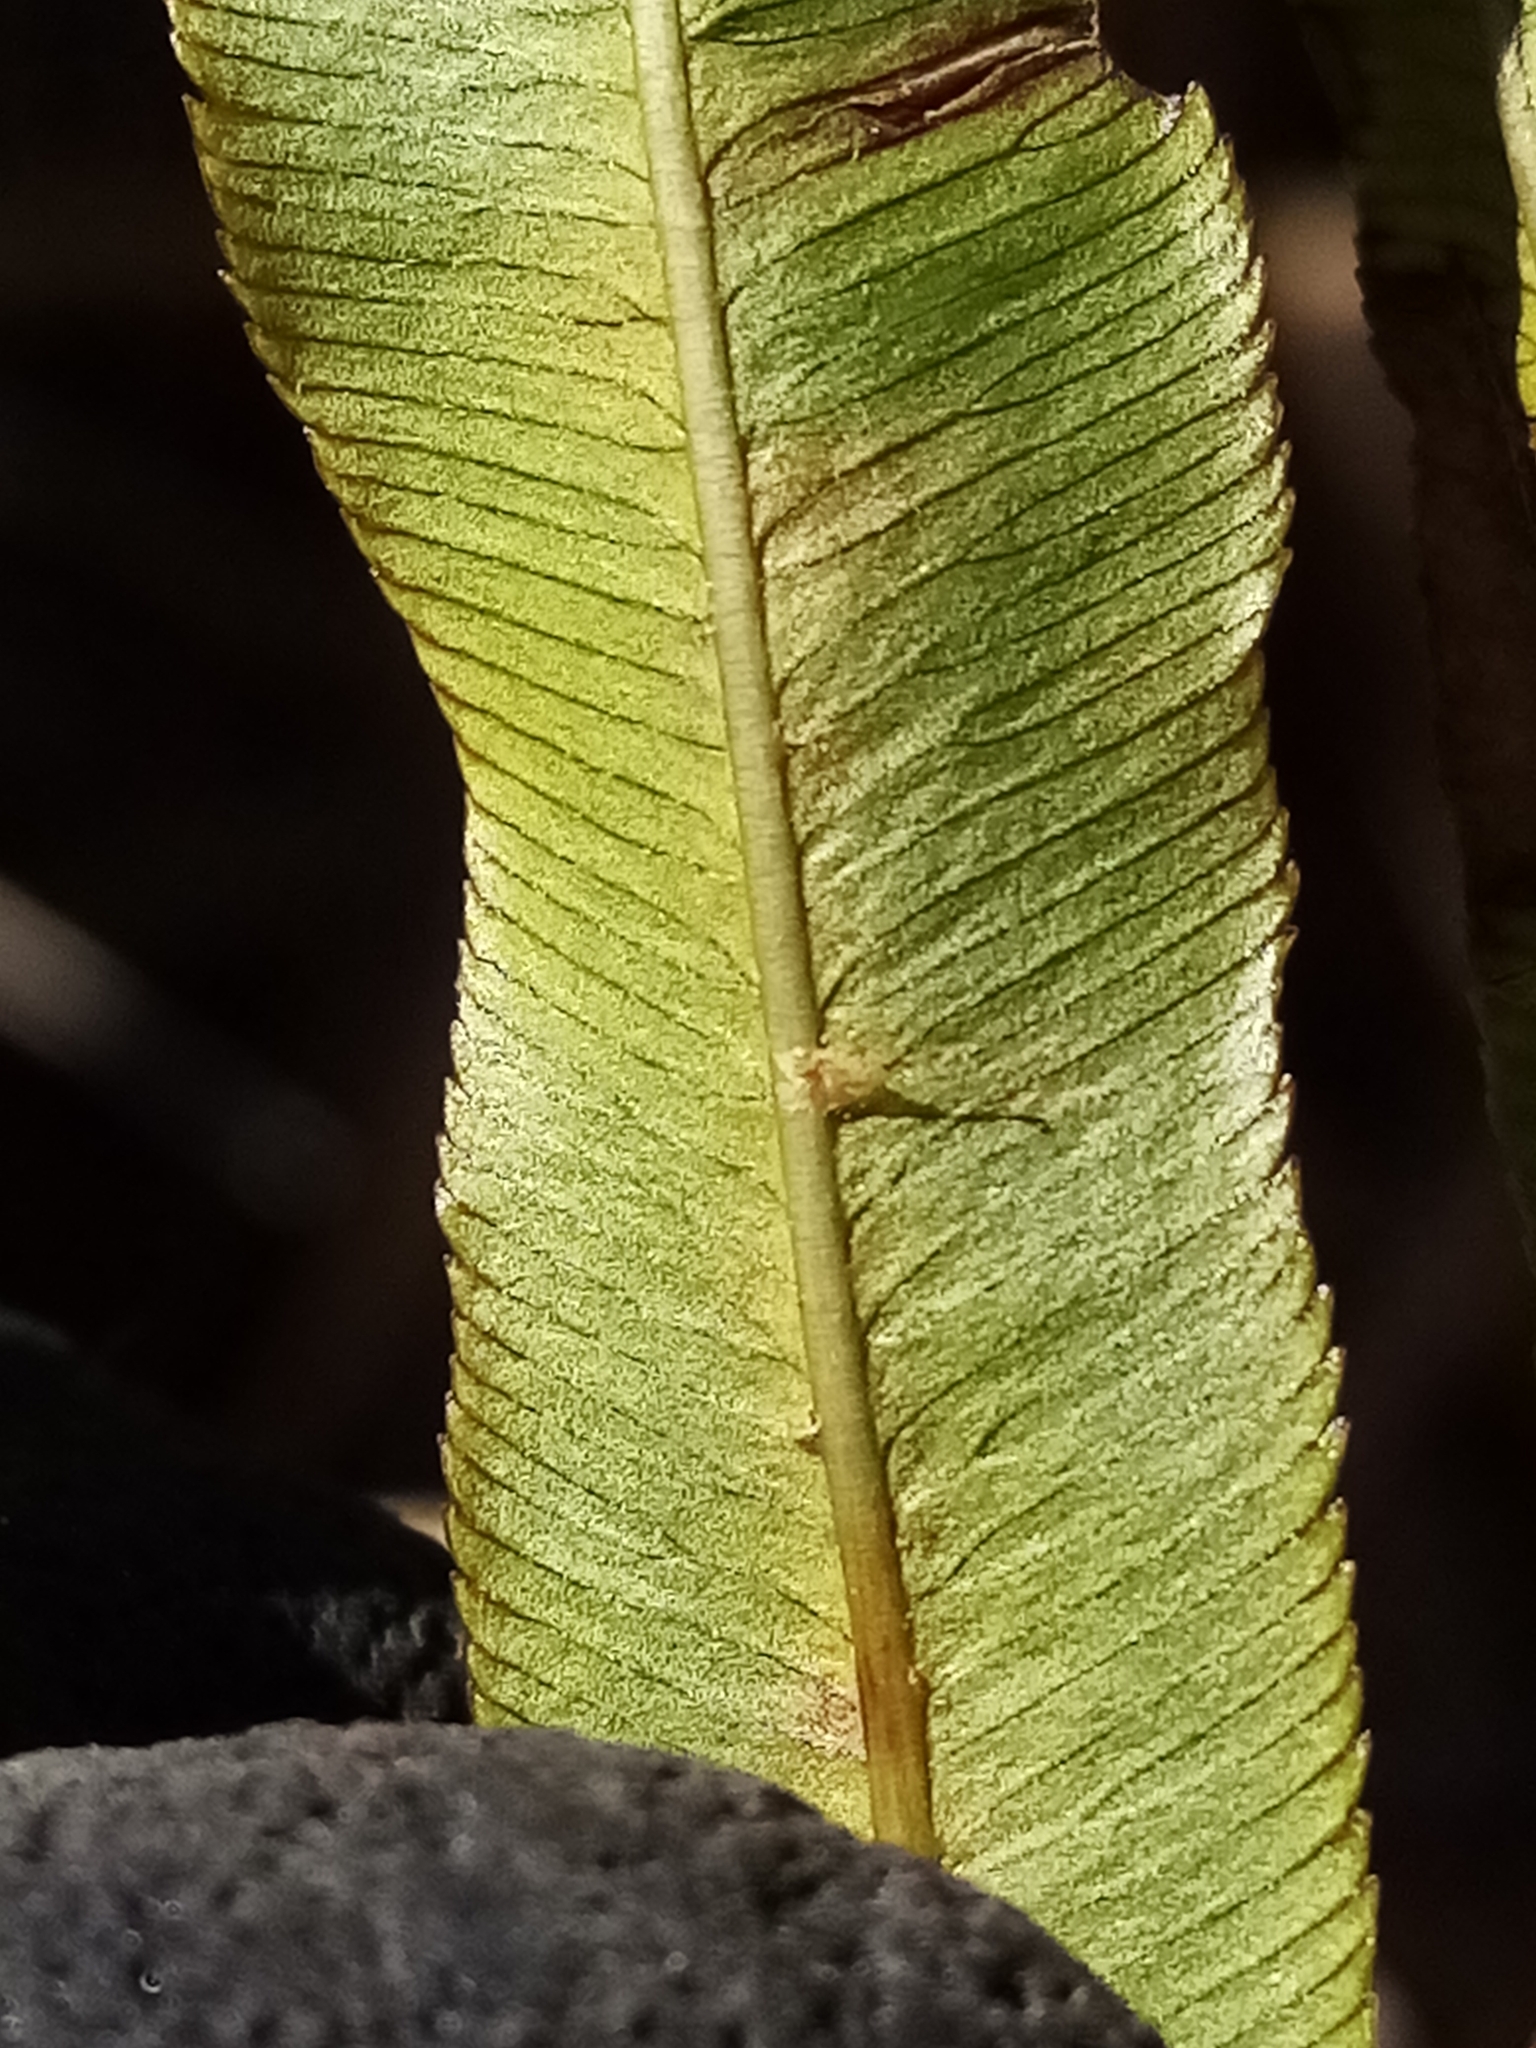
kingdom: Plantae
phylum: Tracheophyta
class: Polypodiopsida
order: Polypodiales
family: Blechnaceae
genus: Parablechnum
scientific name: Parablechnum minus
